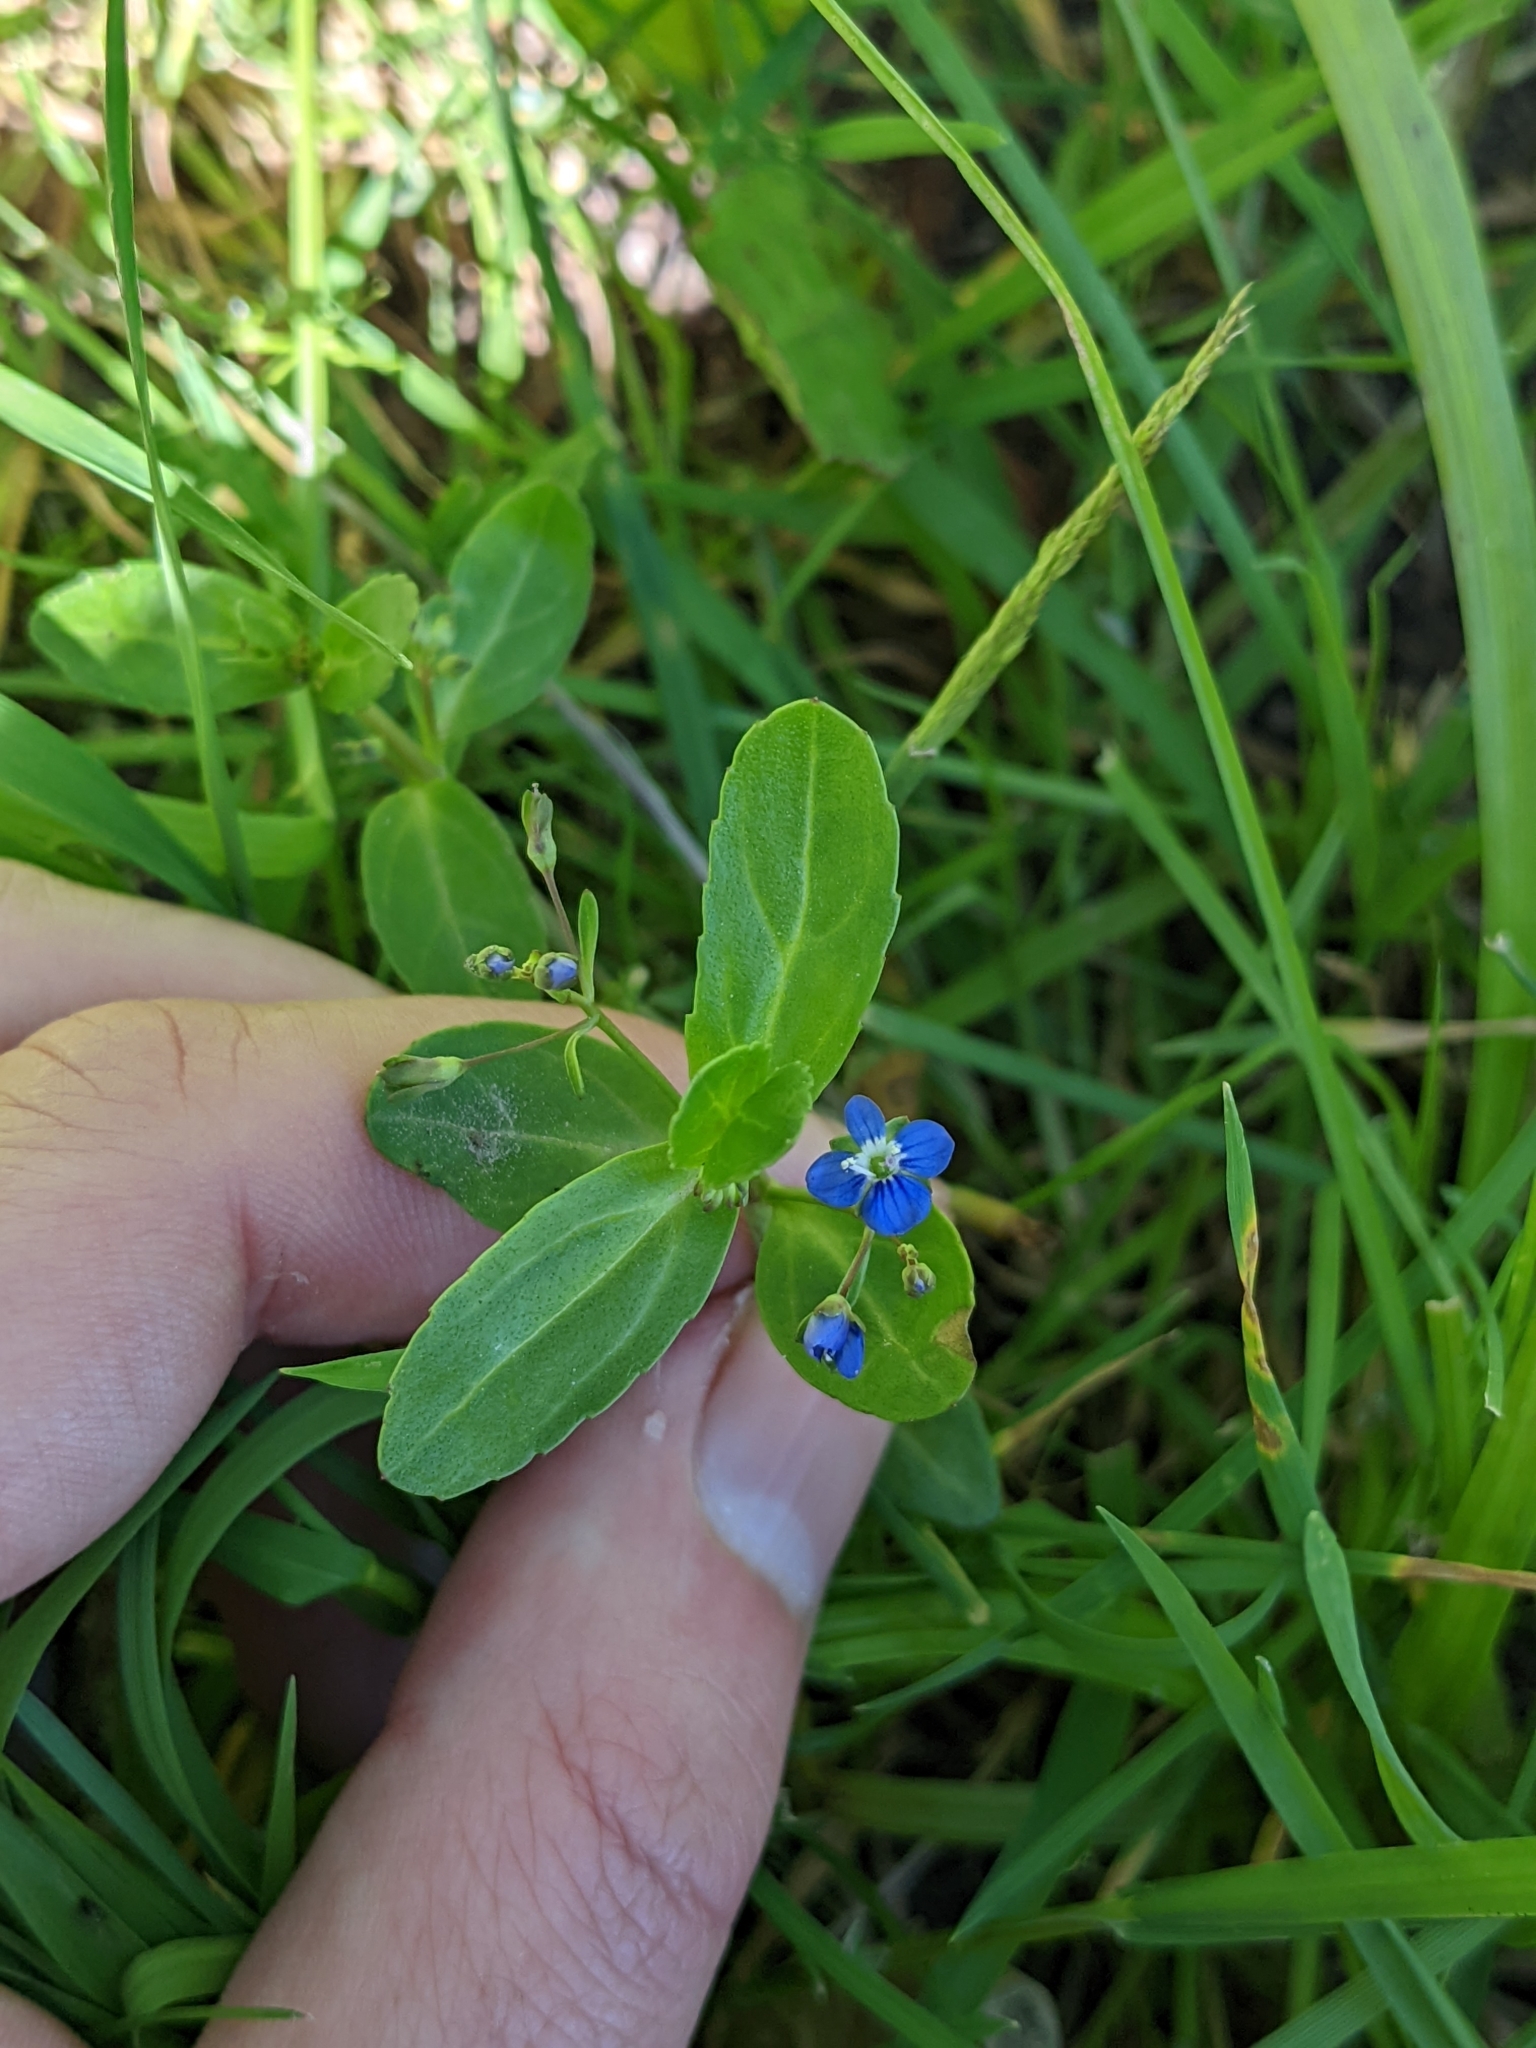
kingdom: Plantae
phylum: Tracheophyta
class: Magnoliopsida
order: Lamiales
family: Plantaginaceae
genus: Veronica
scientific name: Veronica beccabunga
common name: Brooklime
